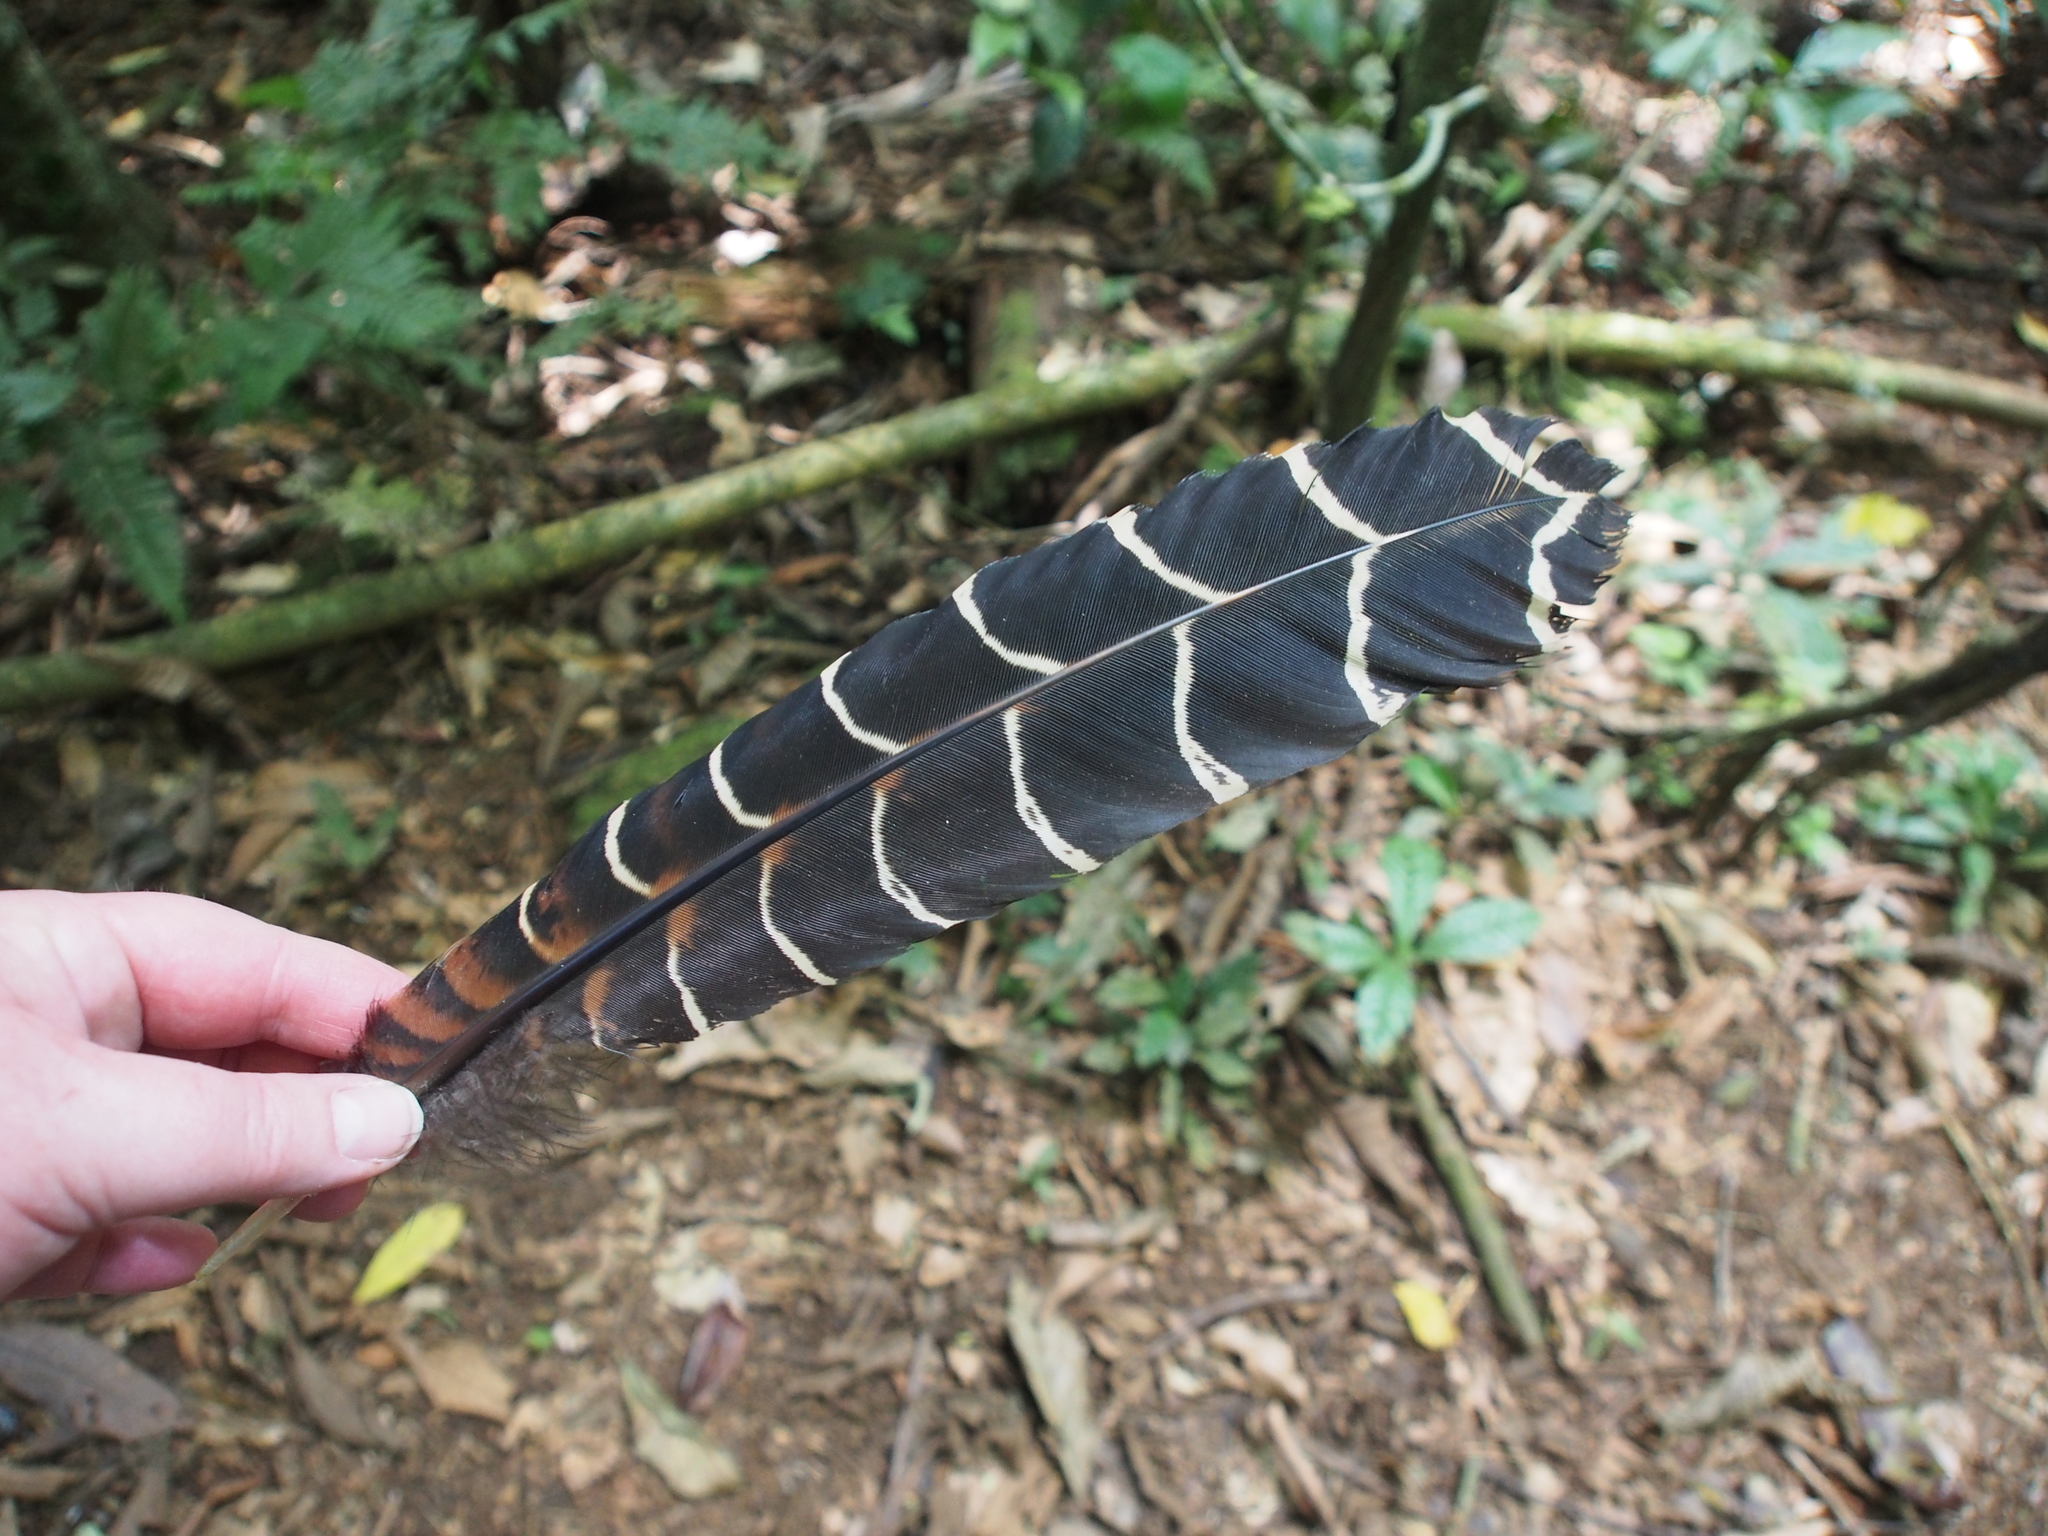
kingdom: Animalia
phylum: Chordata
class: Aves
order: Galliformes
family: Cracidae
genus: Crax
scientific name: Crax rubra
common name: Great curassow
